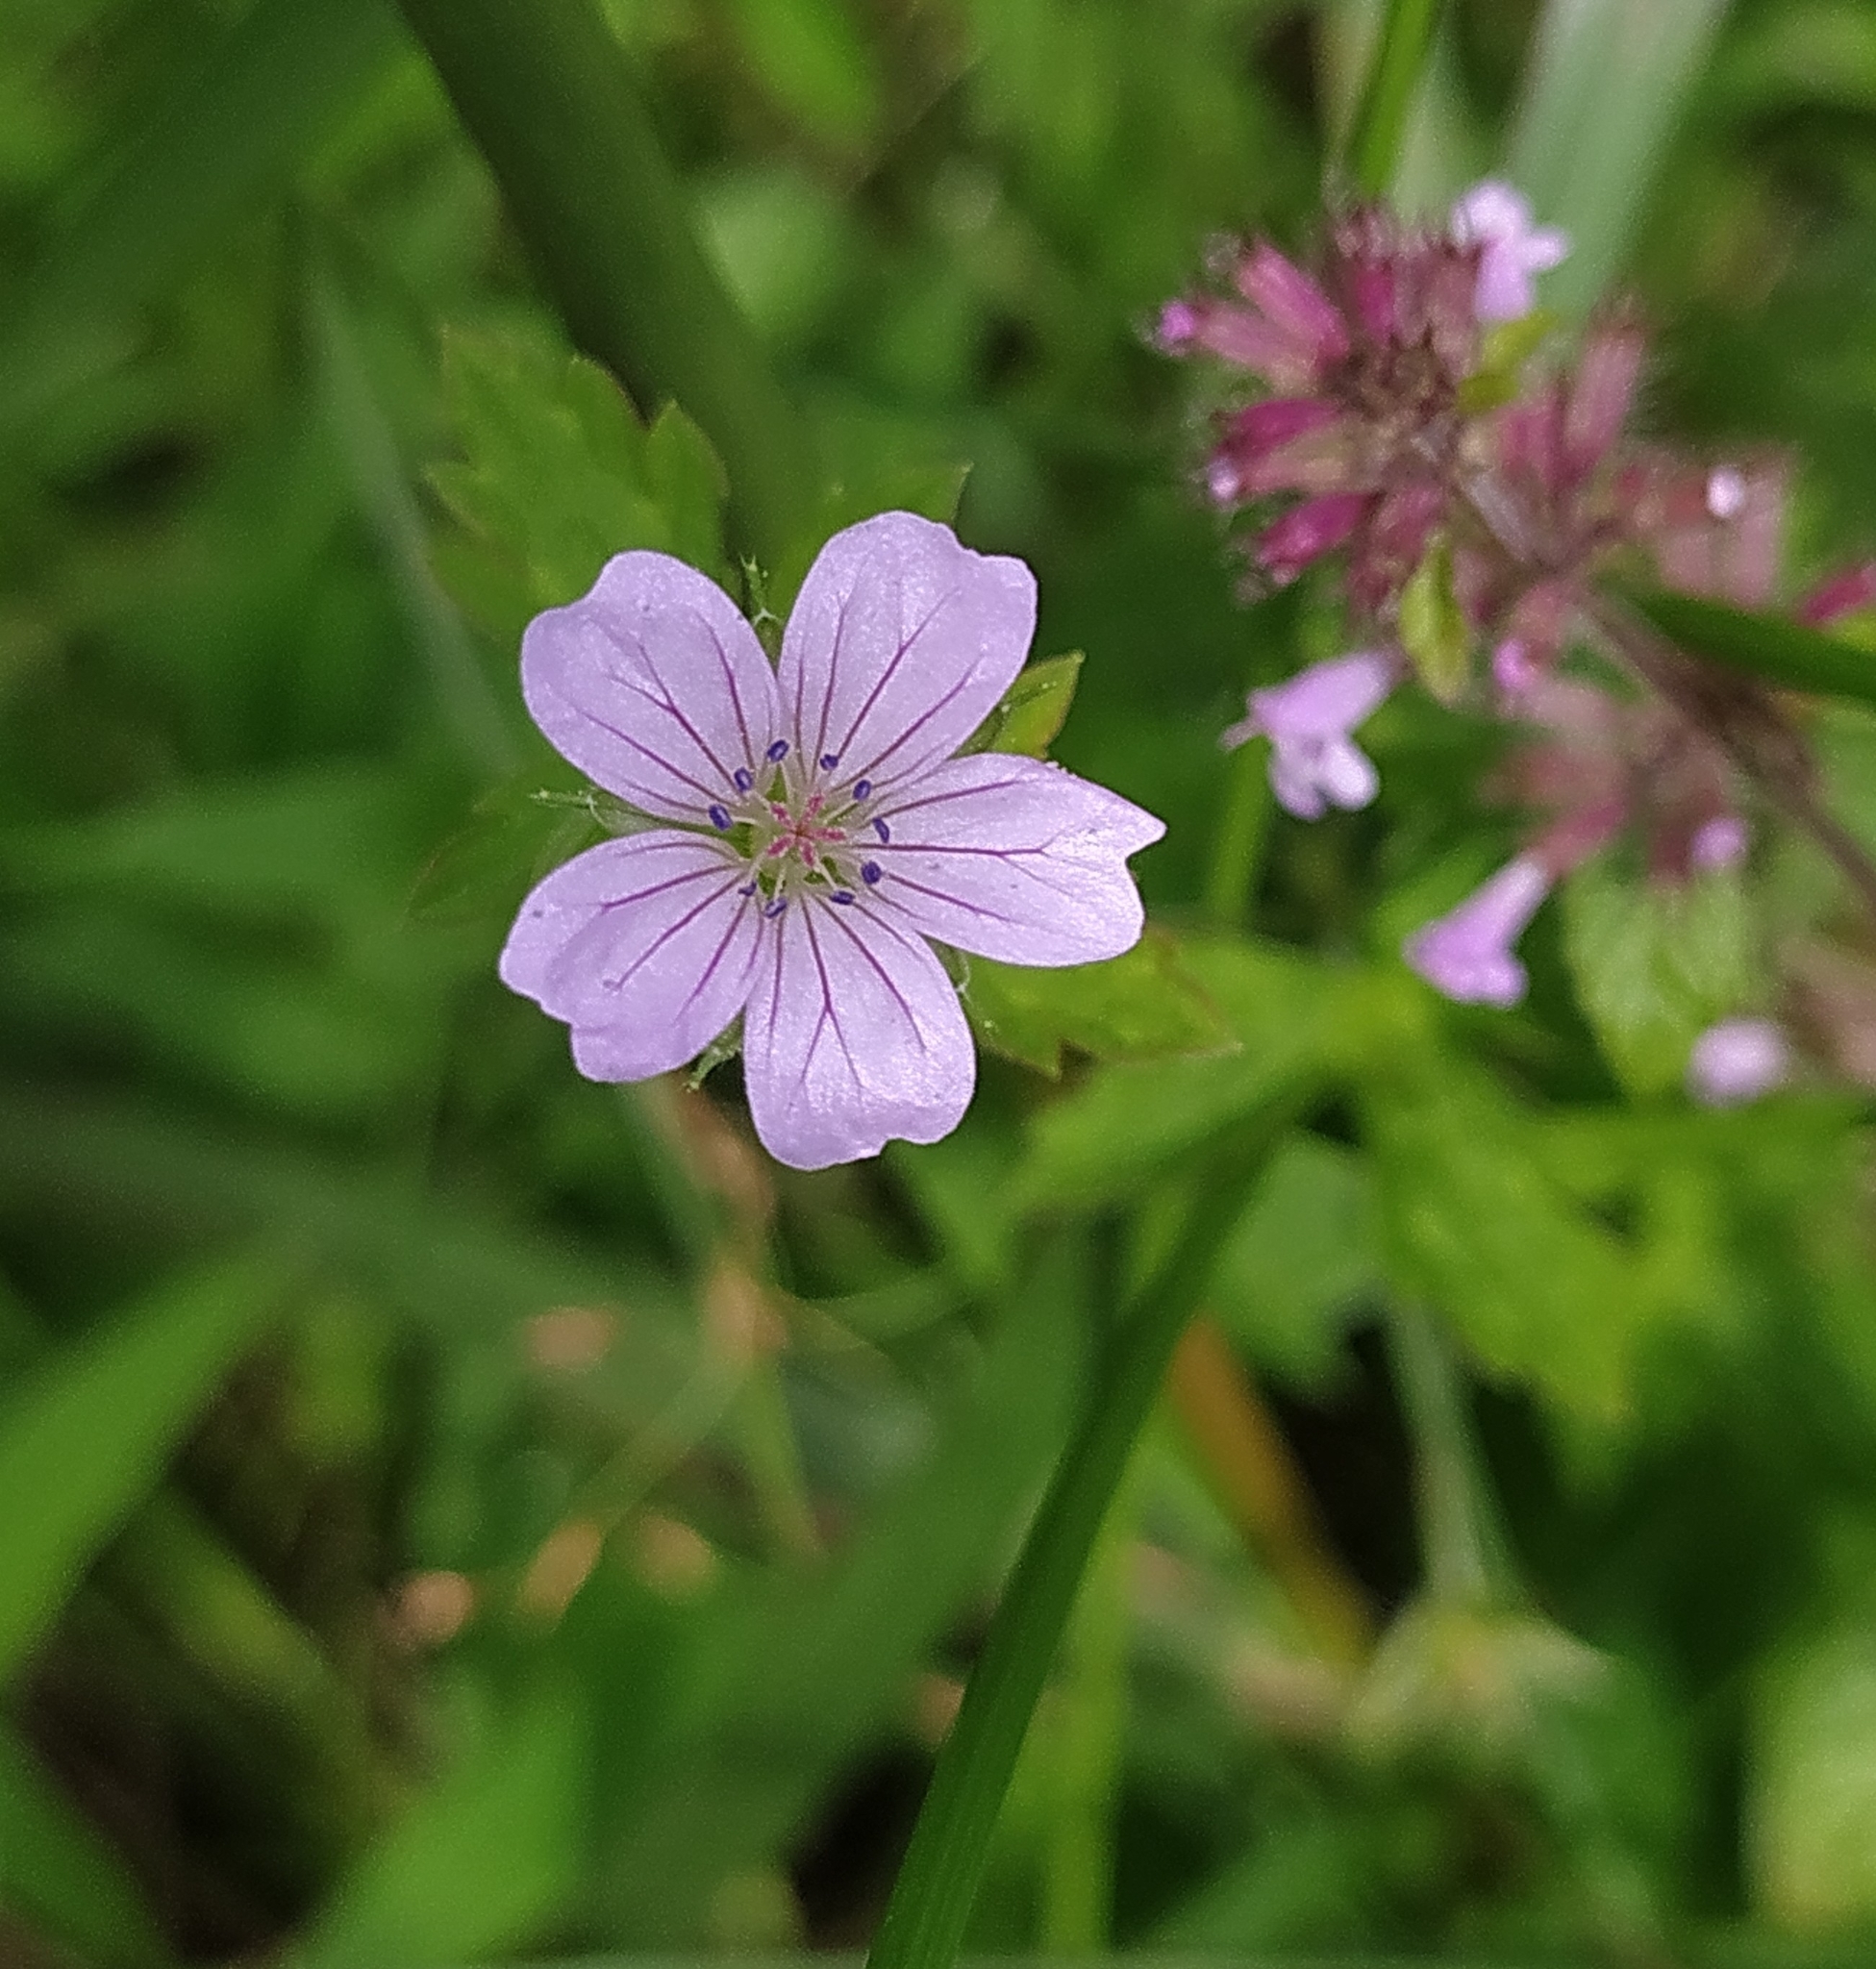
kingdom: Plantae
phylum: Tracheophyta
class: Magnoliopsida
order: Geraniales
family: Geraniaceae
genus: Geranium
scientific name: Geranium nepalense
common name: Nepalese crane's-bill
